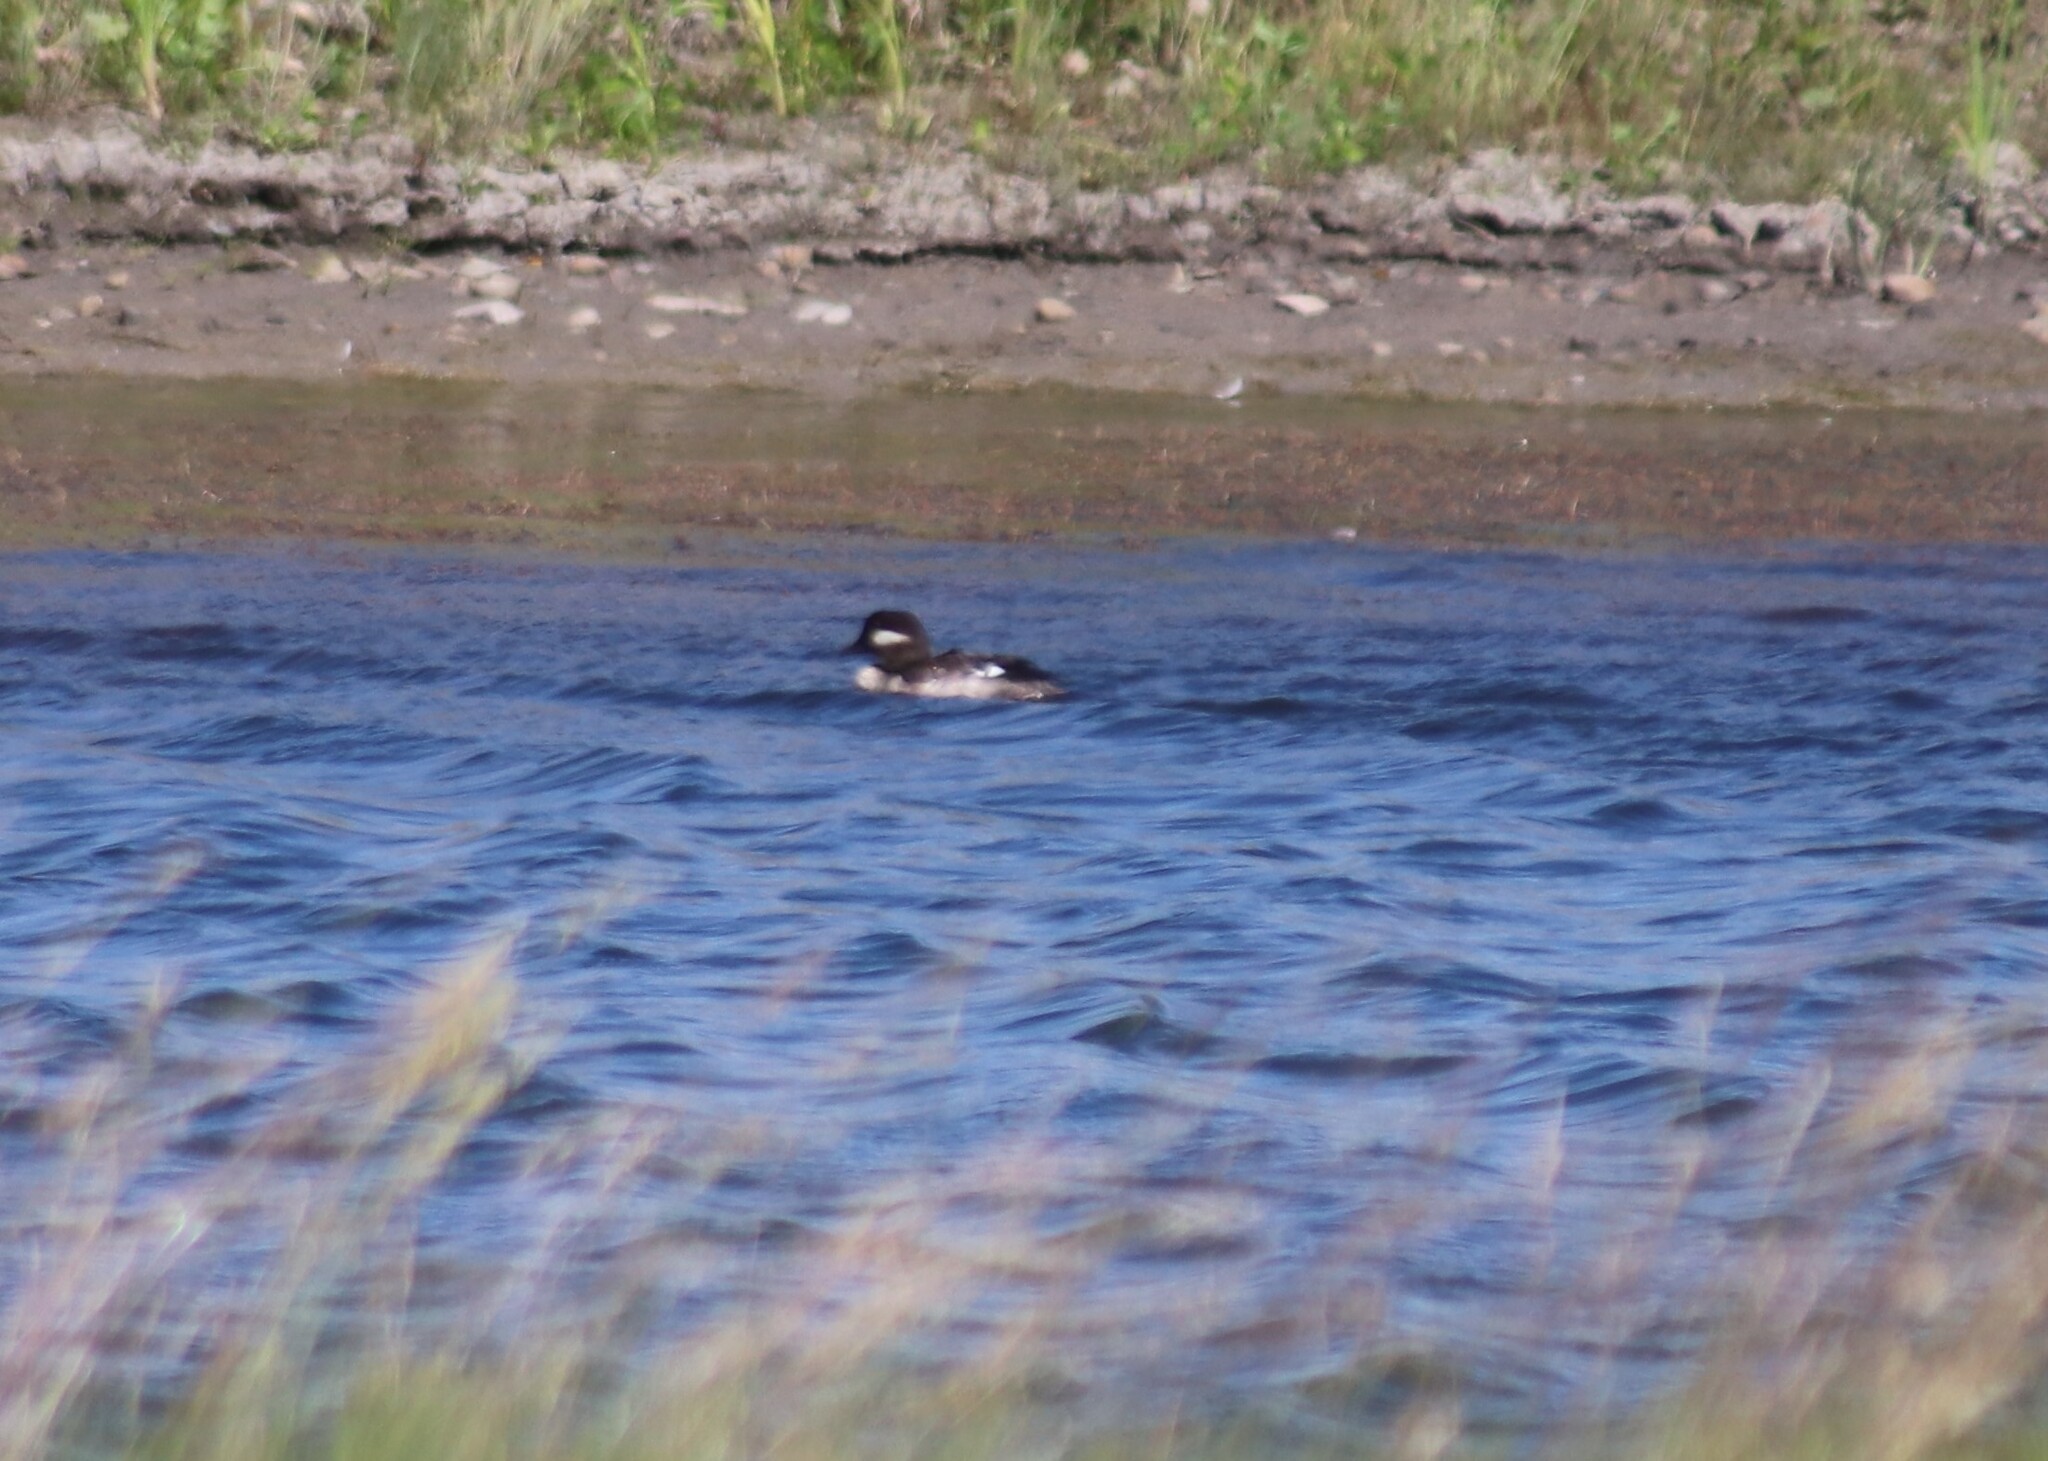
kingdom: Animalia
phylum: Chordata
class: Aves
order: Anseriformes
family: Anatidae
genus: Bucephala
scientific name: Bucephala albeola
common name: Bufflehead
